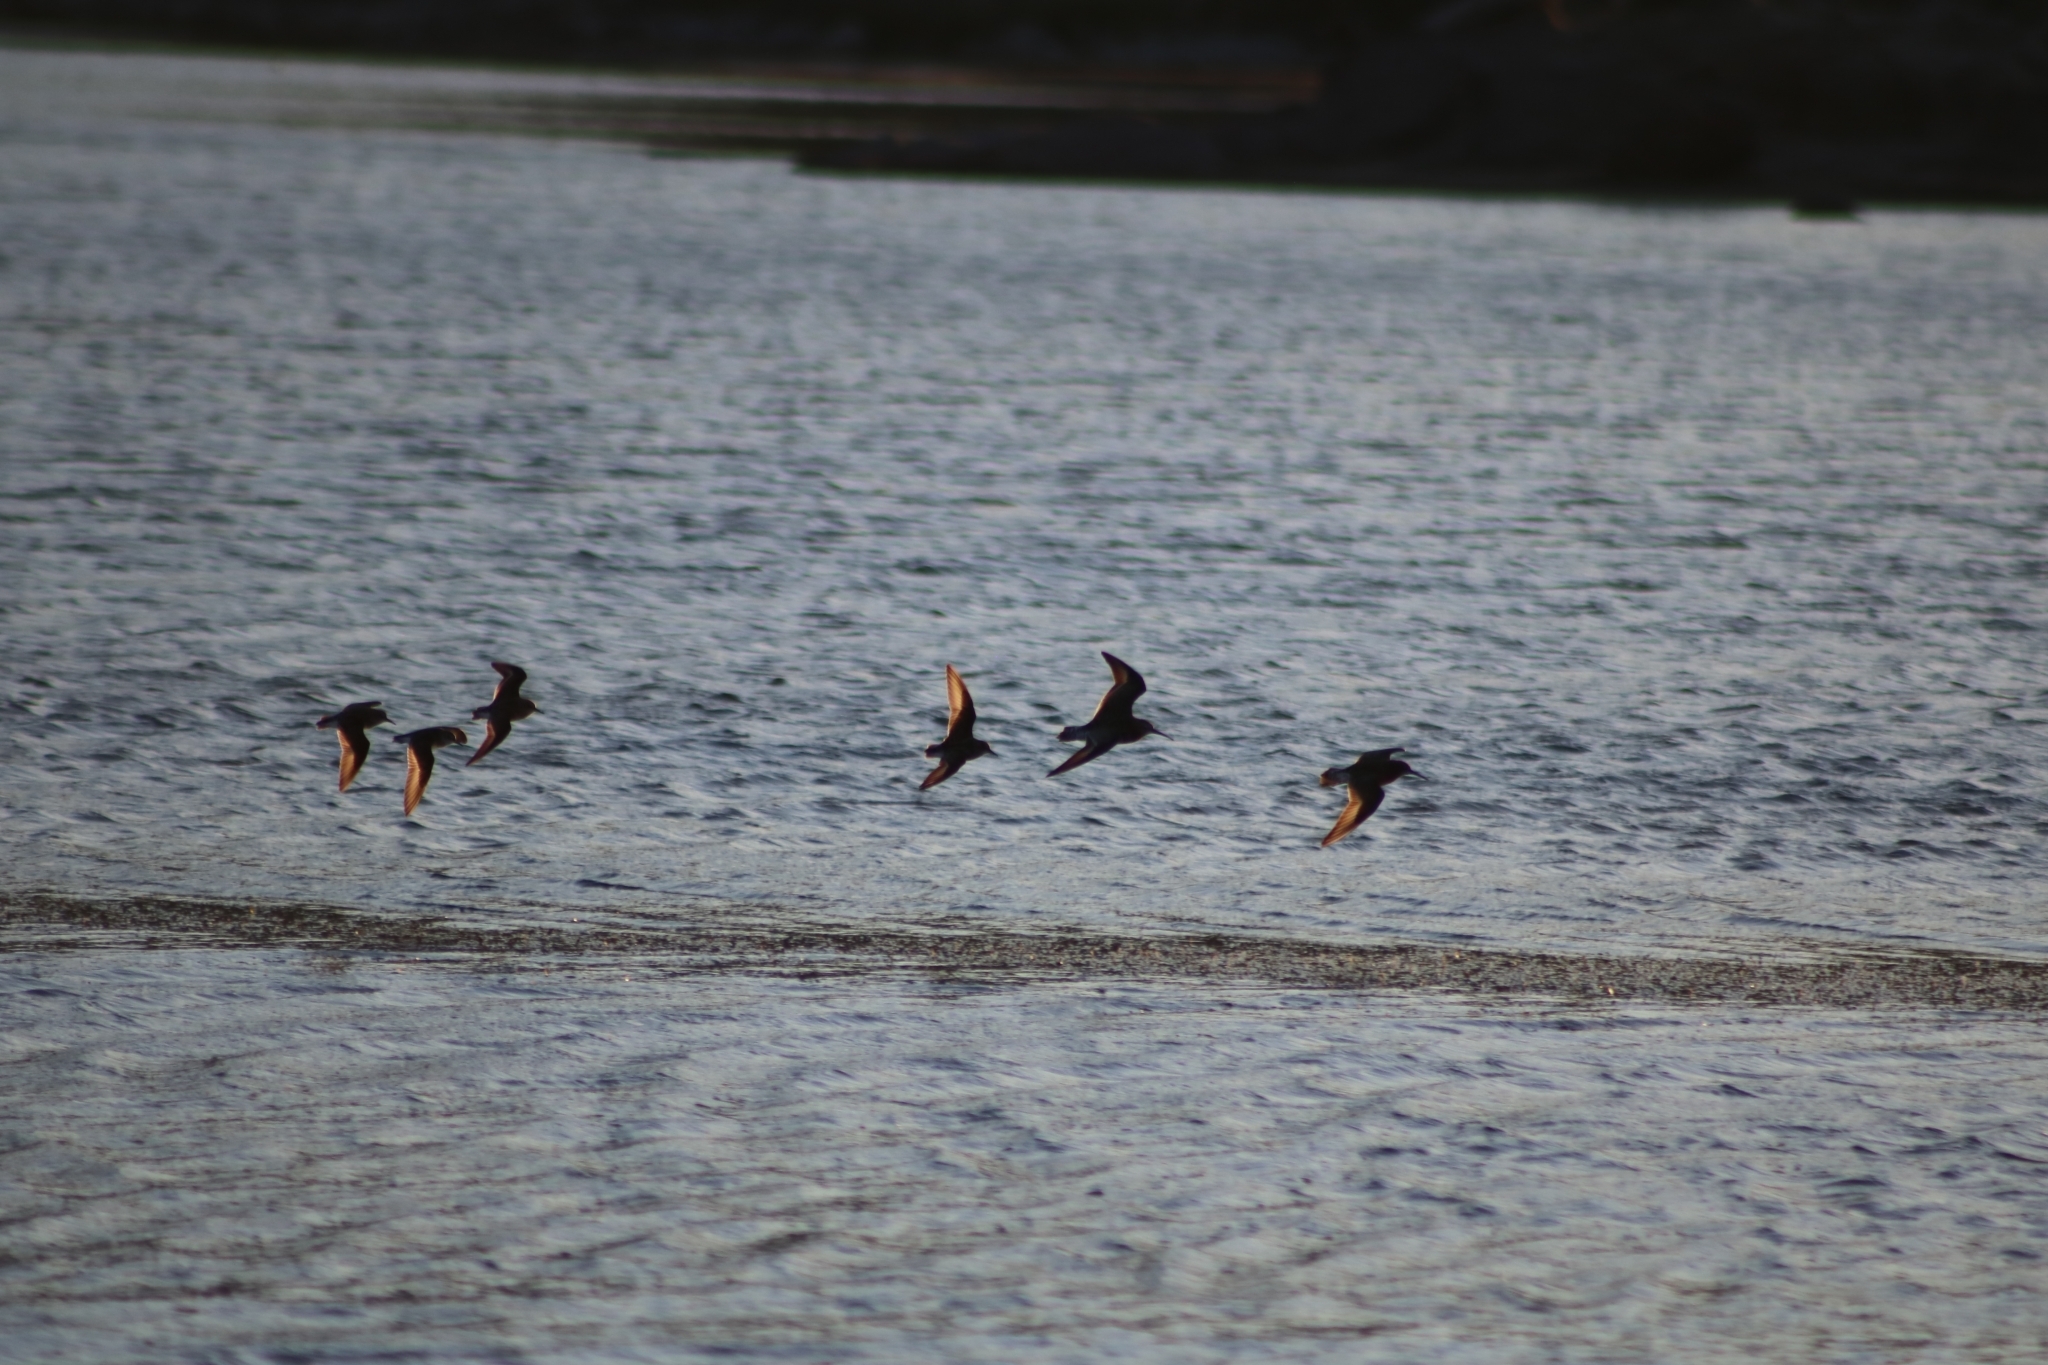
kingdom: Animalia
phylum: Chordata
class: Aves
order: Charadriiformes
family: Scolopacidae
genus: Calidris
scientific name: Calidris ferruginea
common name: Curlew sandpiper
